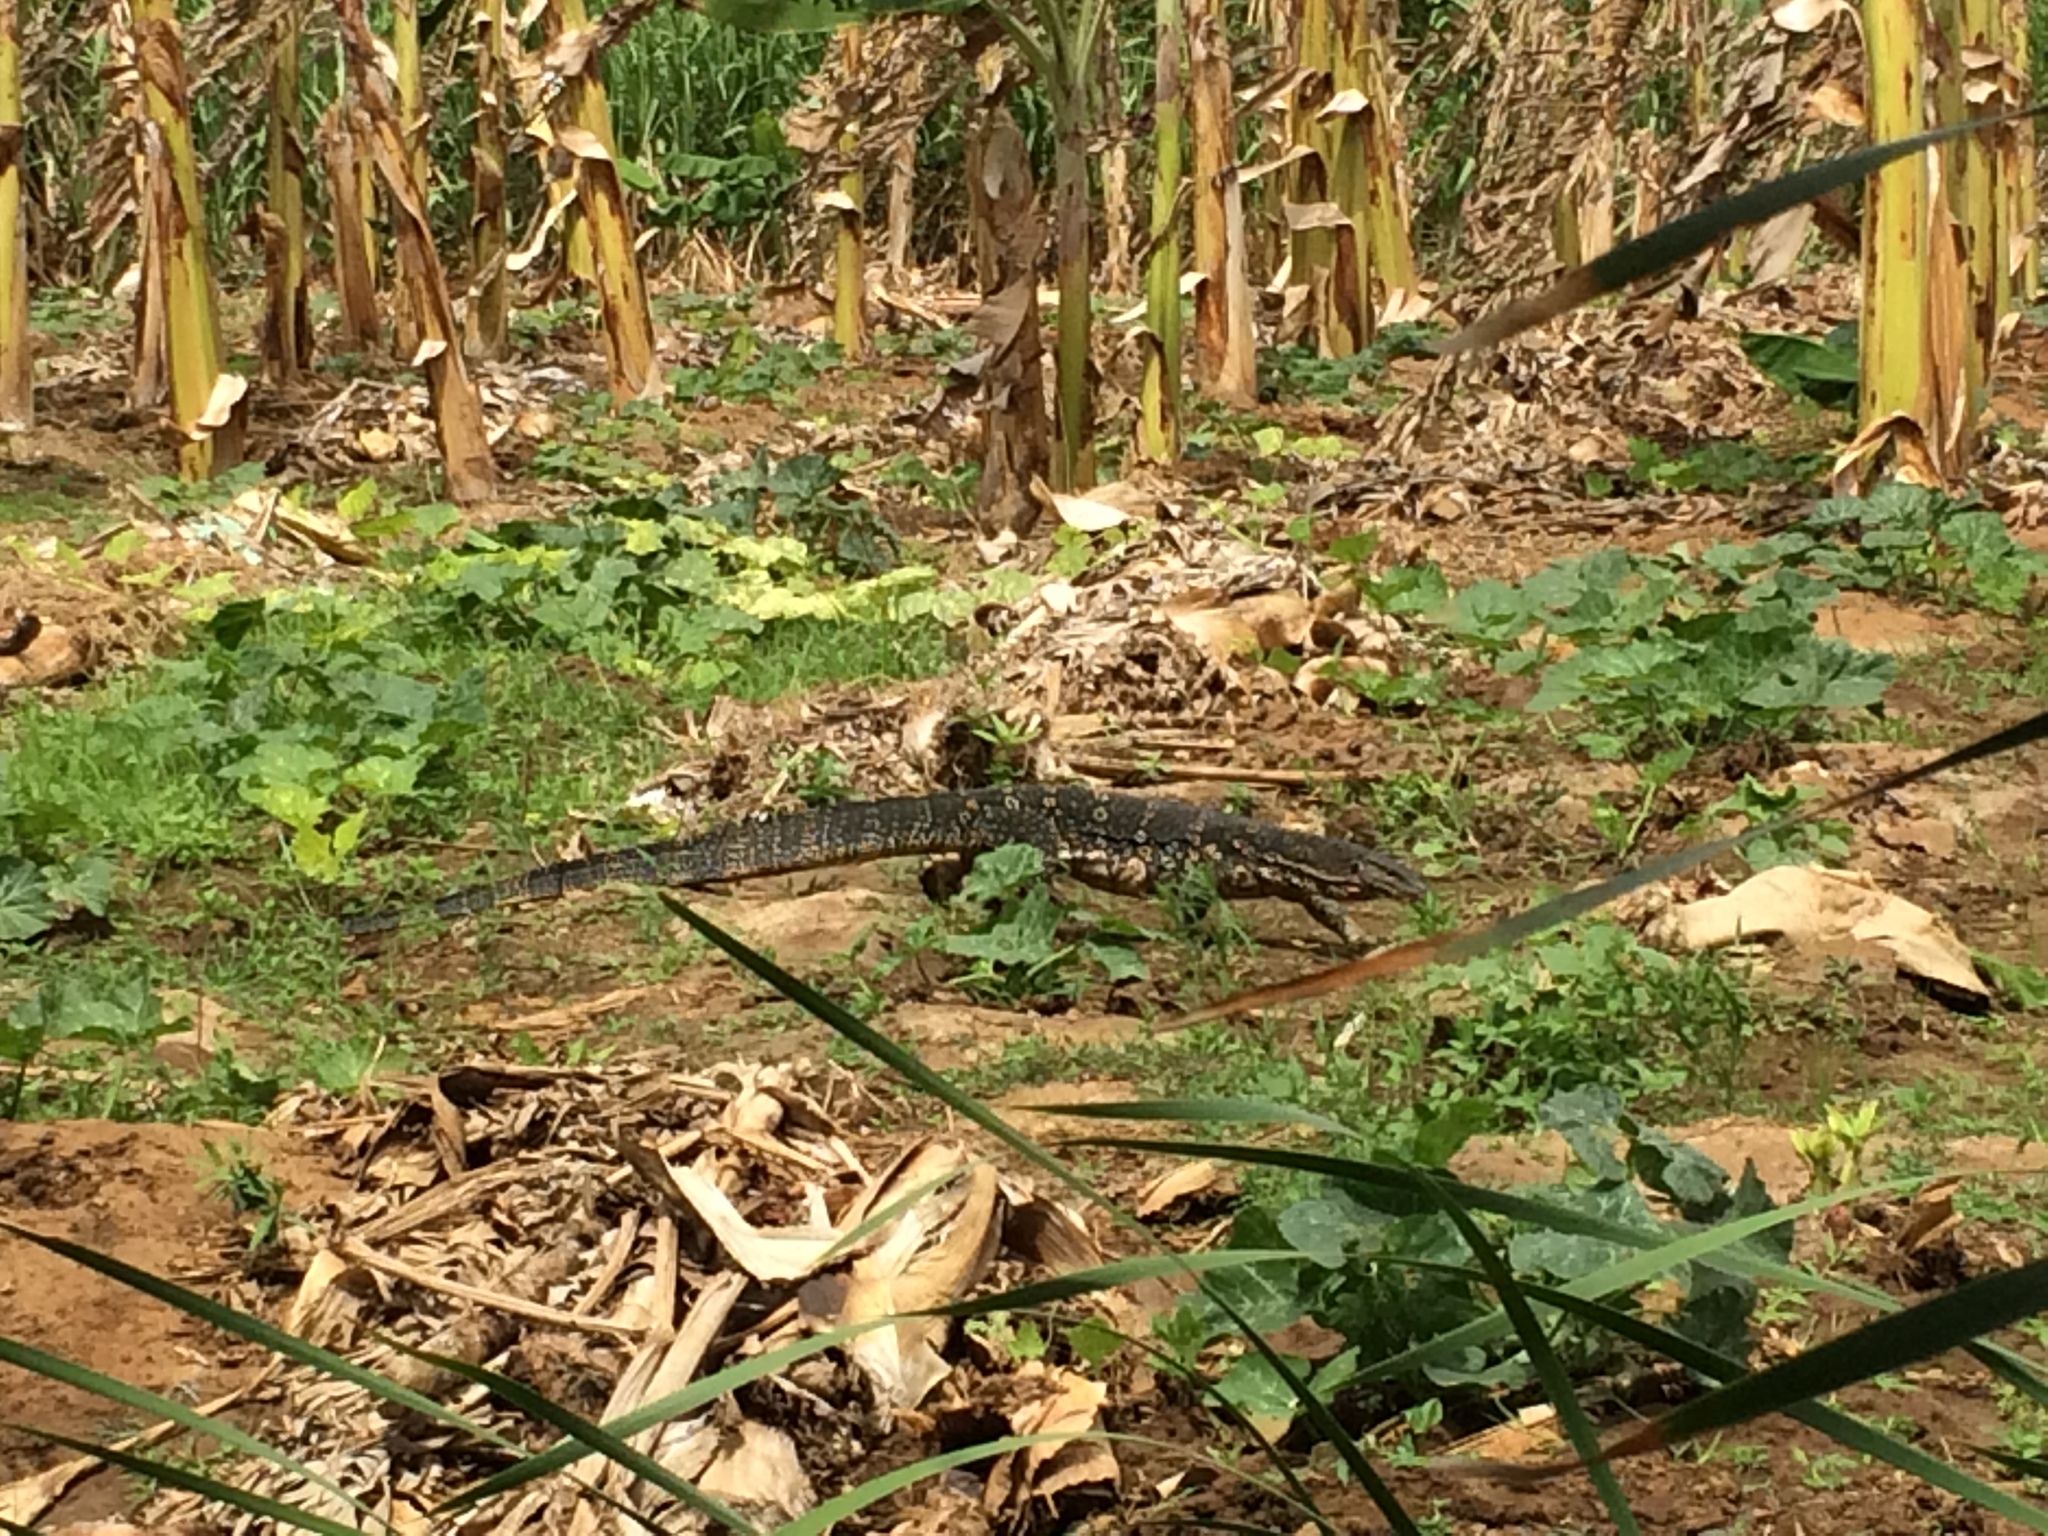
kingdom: Animalia
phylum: Chordata
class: Squamata
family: Varanidae
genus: Varanus
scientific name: Varanus salvator
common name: Common water monitor
